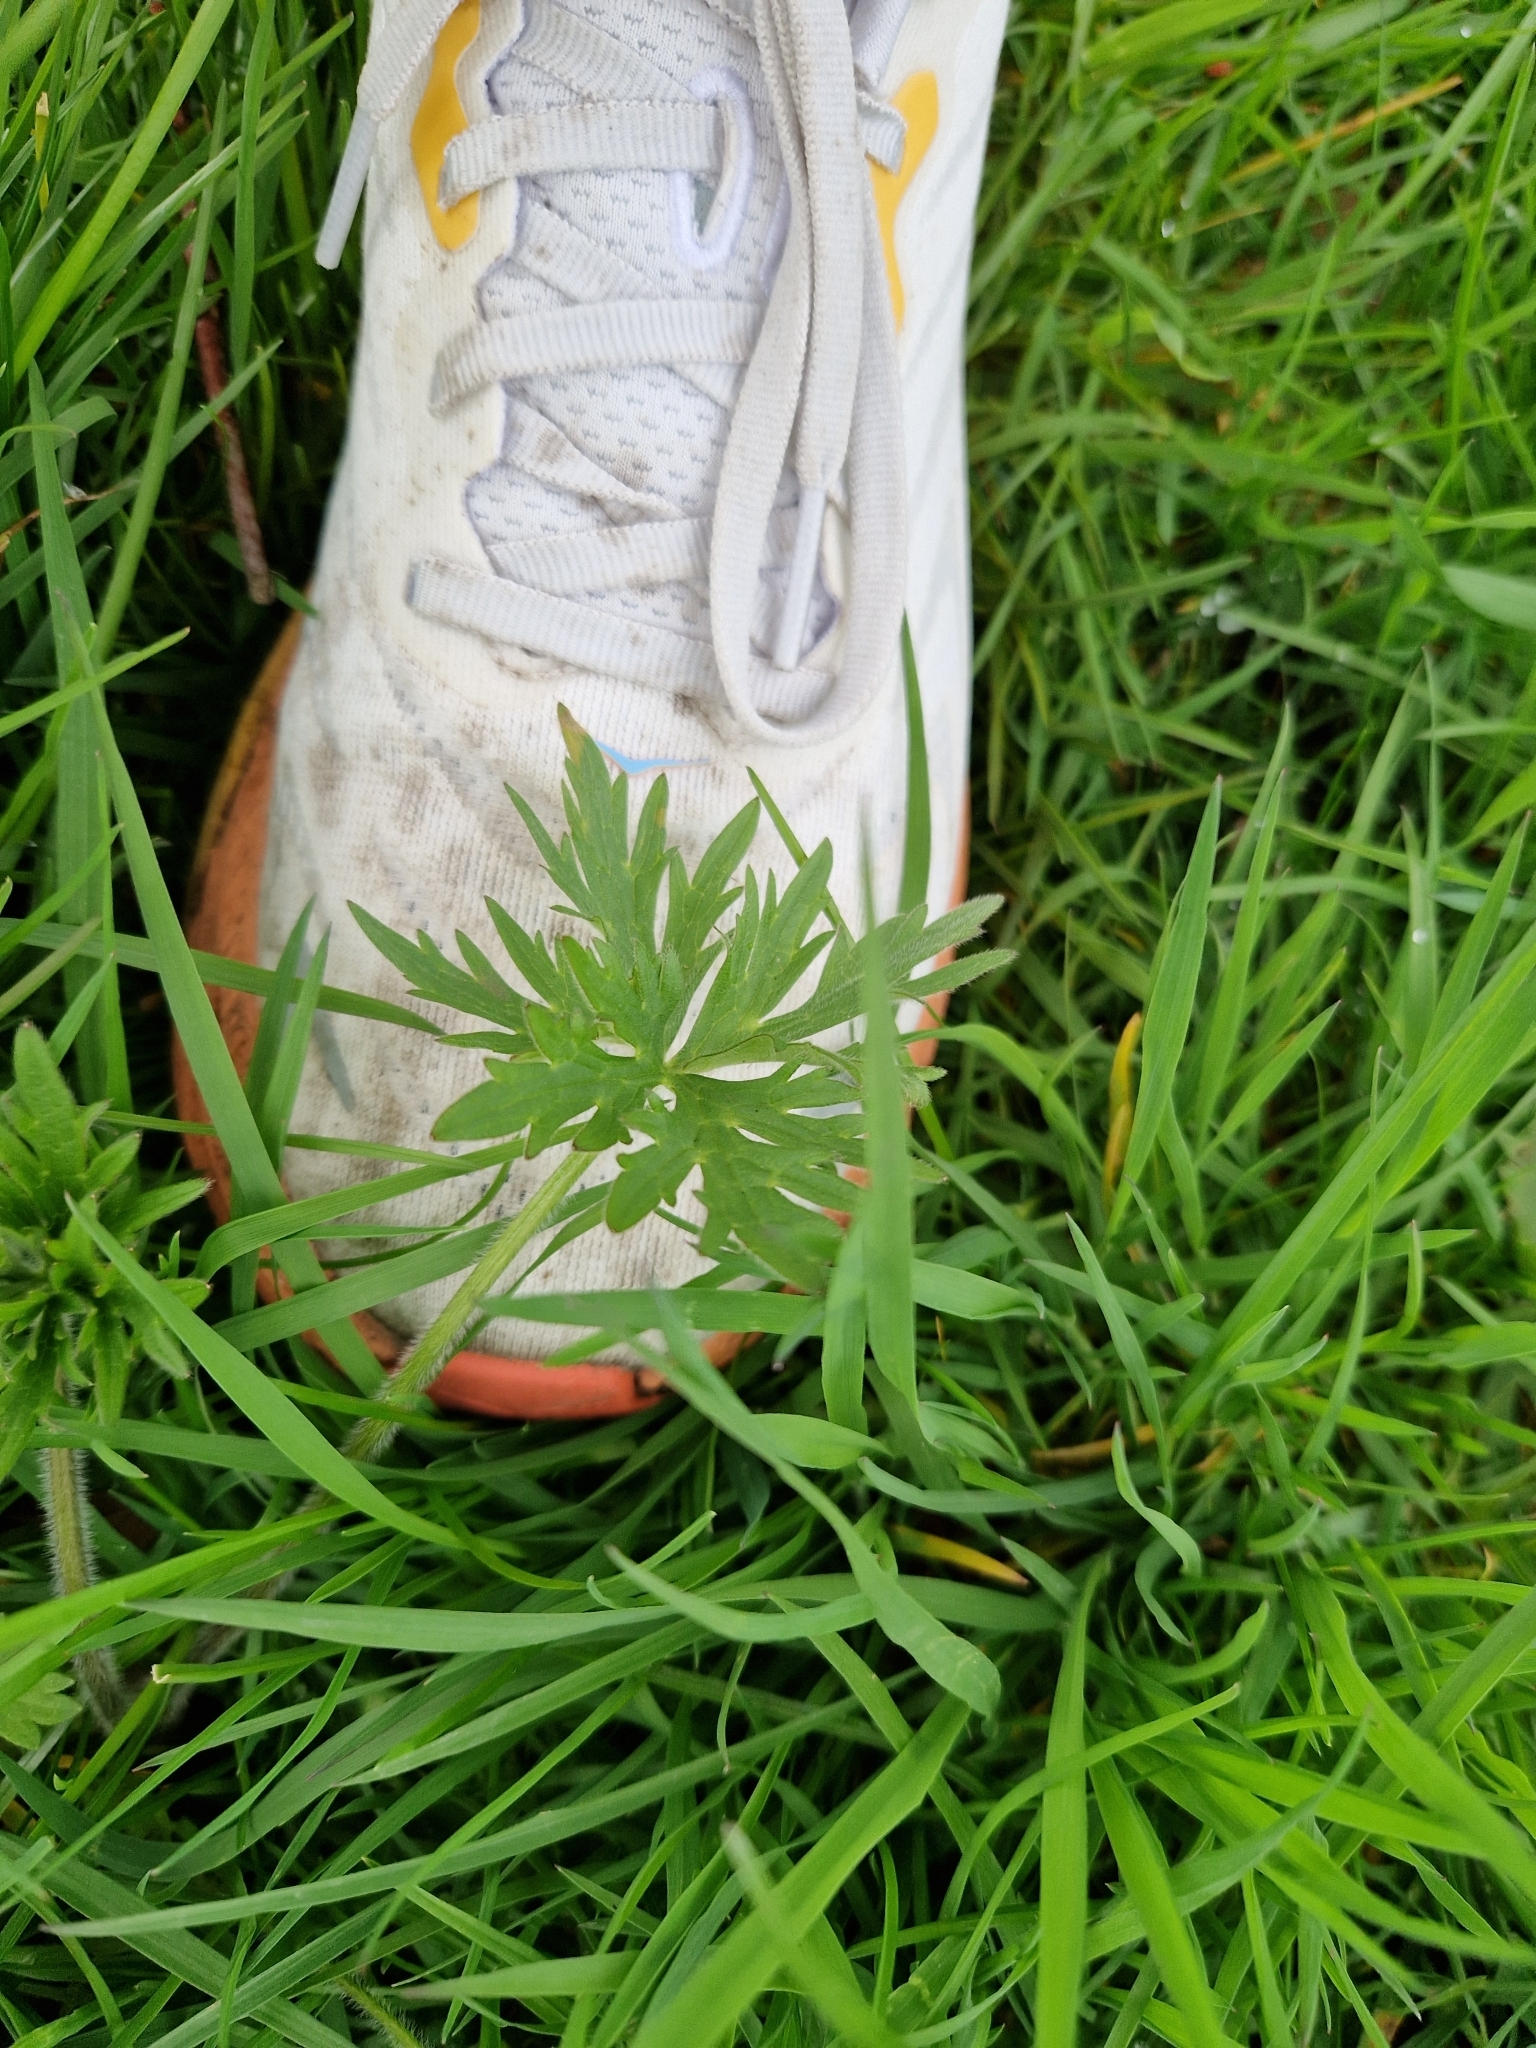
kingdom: Plantae
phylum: Tracheophyta
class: Magnoliopsida
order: Ranunculales
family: Ranunculaceae
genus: Ranunculus
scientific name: Ranunculus acris
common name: Meadow buttercup
